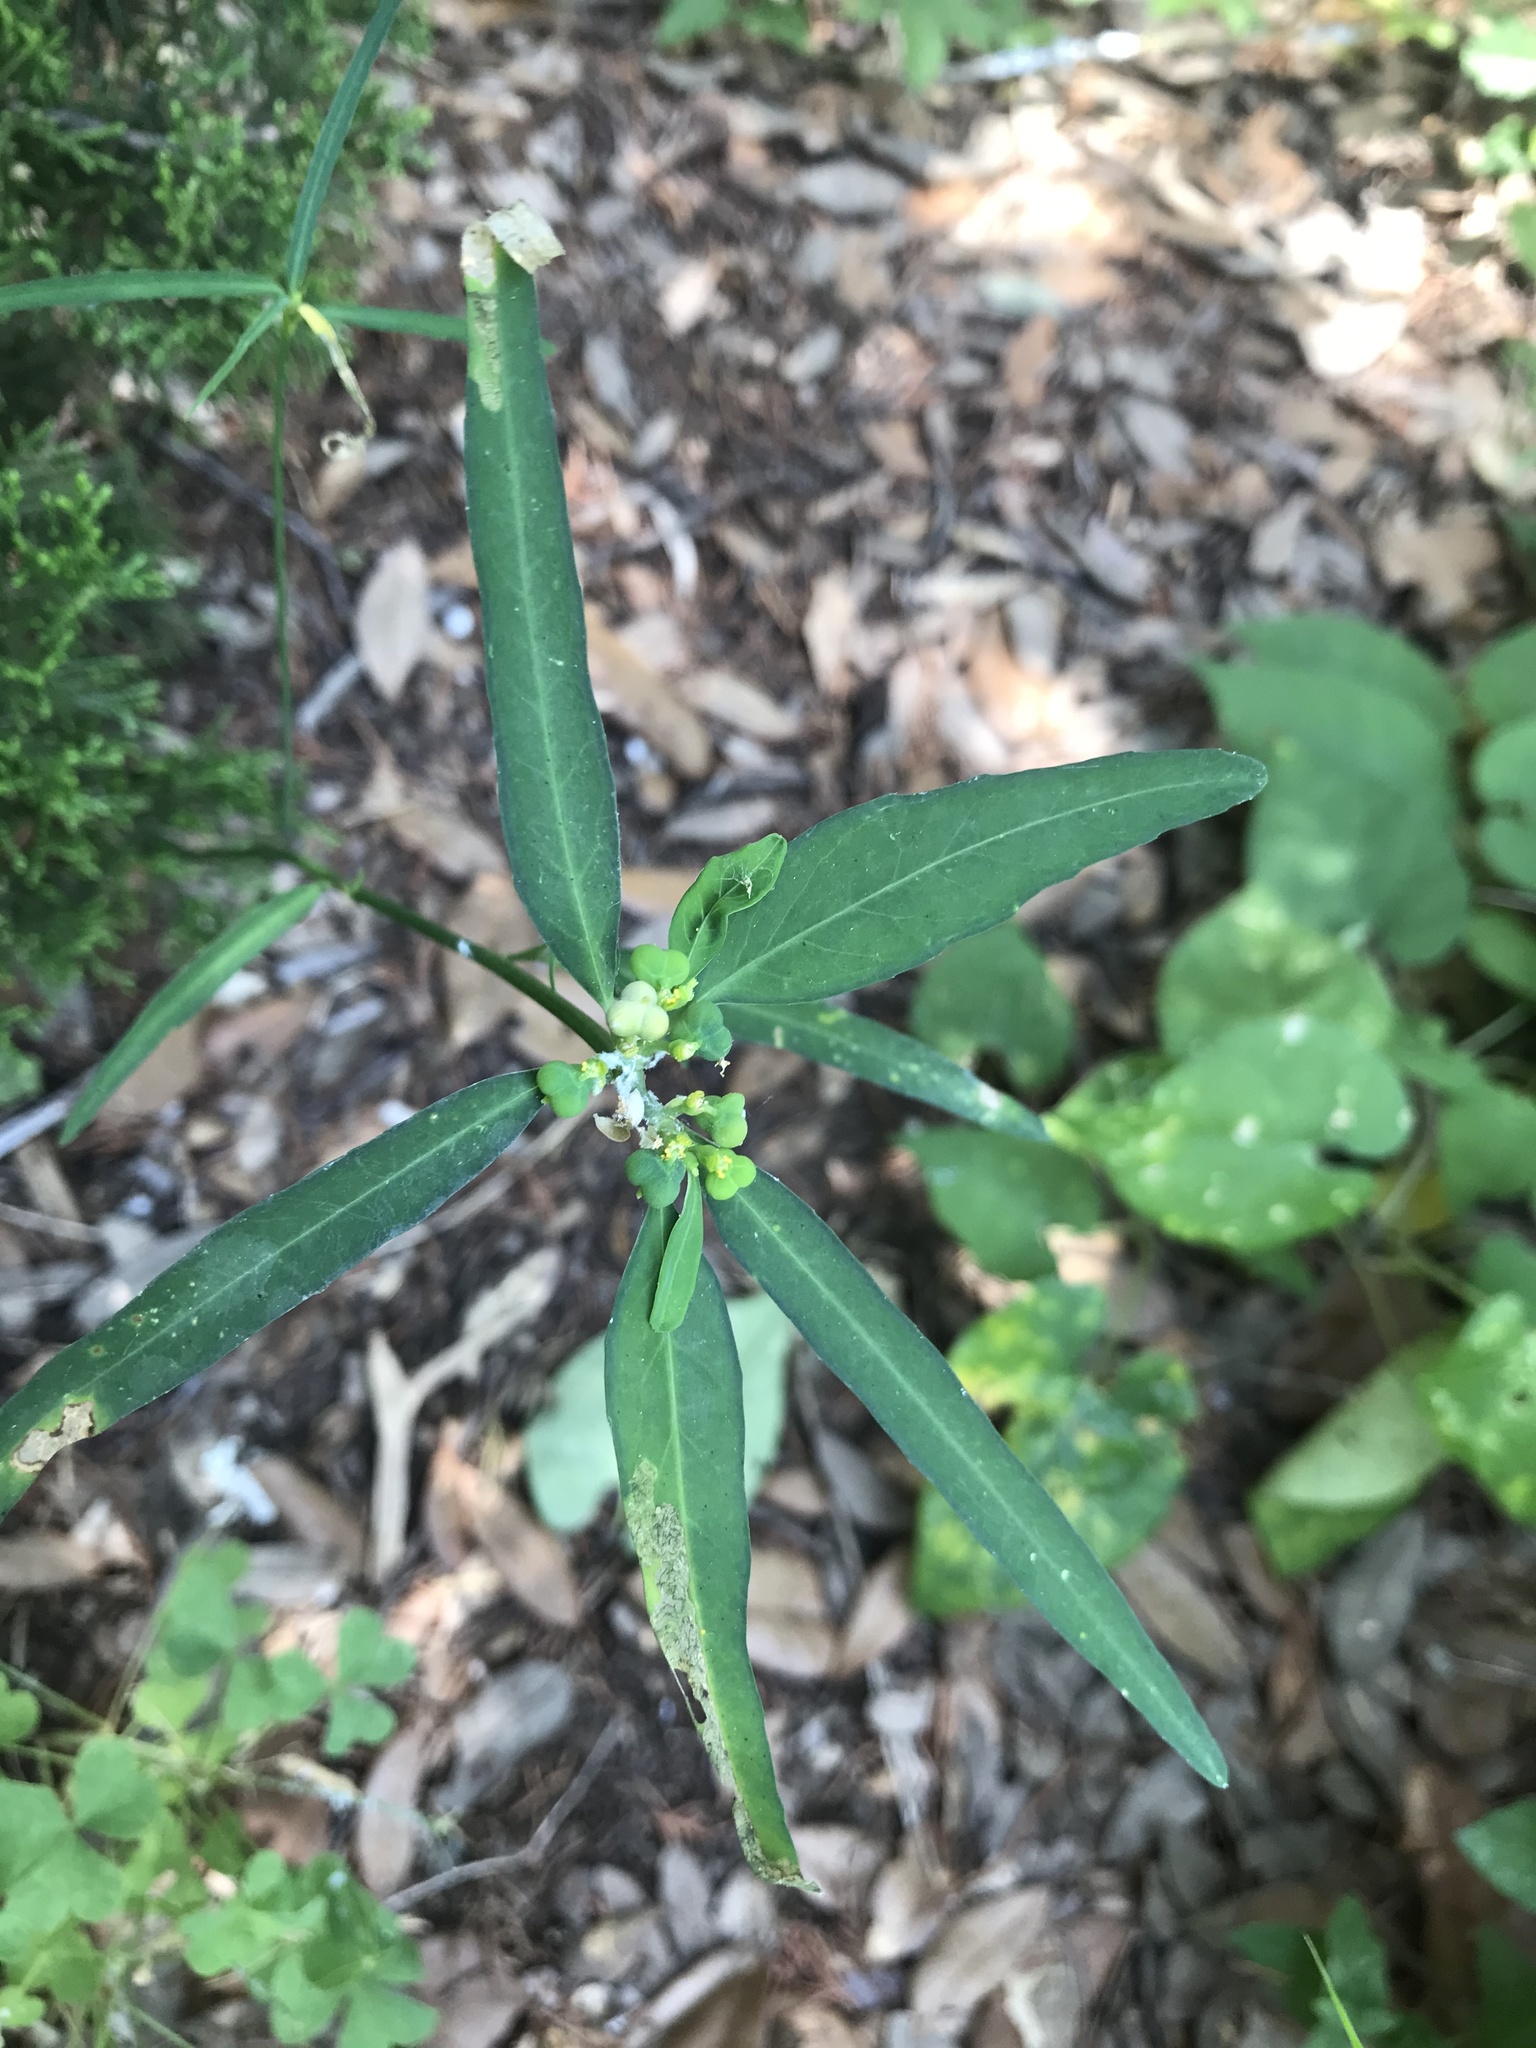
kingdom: Plantae
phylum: Tracheophyta
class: Magnoliopsida
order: Malpighiales
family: Euphorbiaceae
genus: Euphorbia
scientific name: Euphorbia heterophylla
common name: Mexican fireplant
